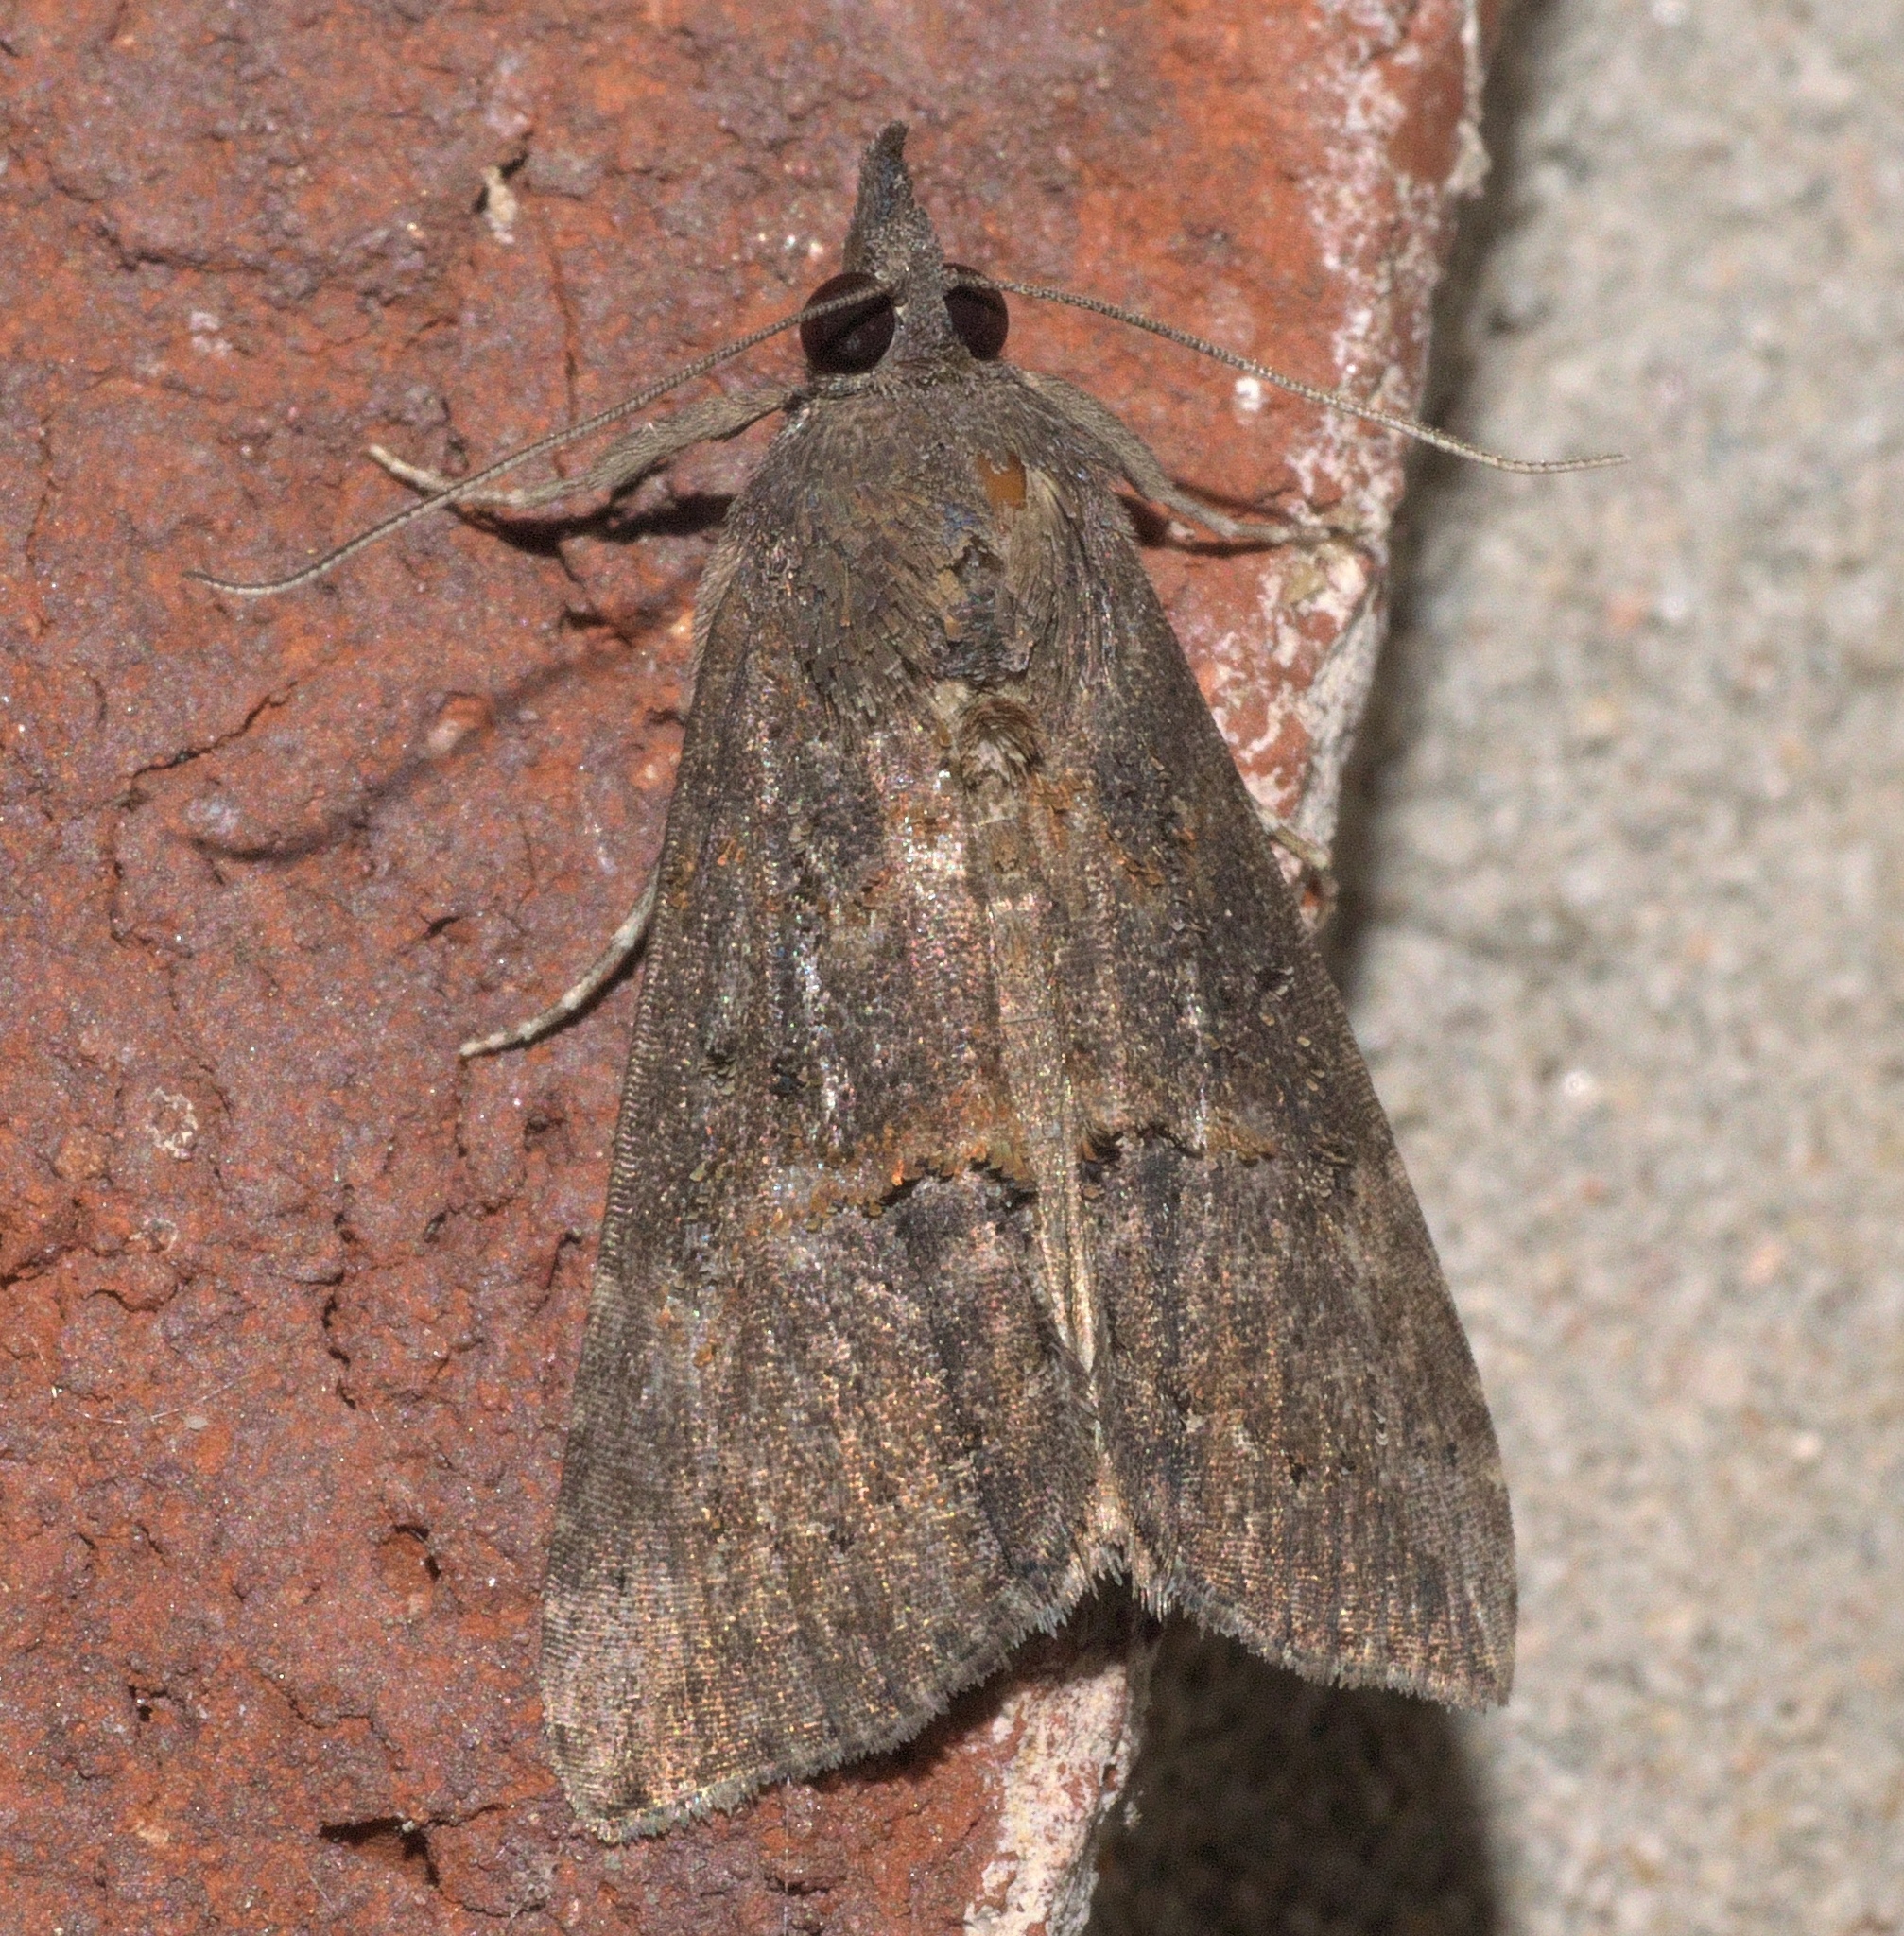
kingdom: Animalia
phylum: Arthropoda
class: Insecta
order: Lepidoptera
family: Erebidae
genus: Hypena
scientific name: Hypena scabra
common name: Green cloverworm
